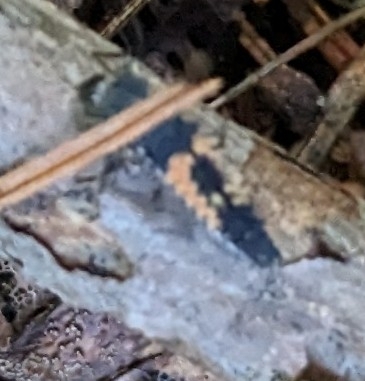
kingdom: Animalia
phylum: Arthropoda
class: Insecta
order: Coleoptera
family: Coccinellidae
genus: Harmonia
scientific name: Harmonia axyridis
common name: Harlequin ladybird
